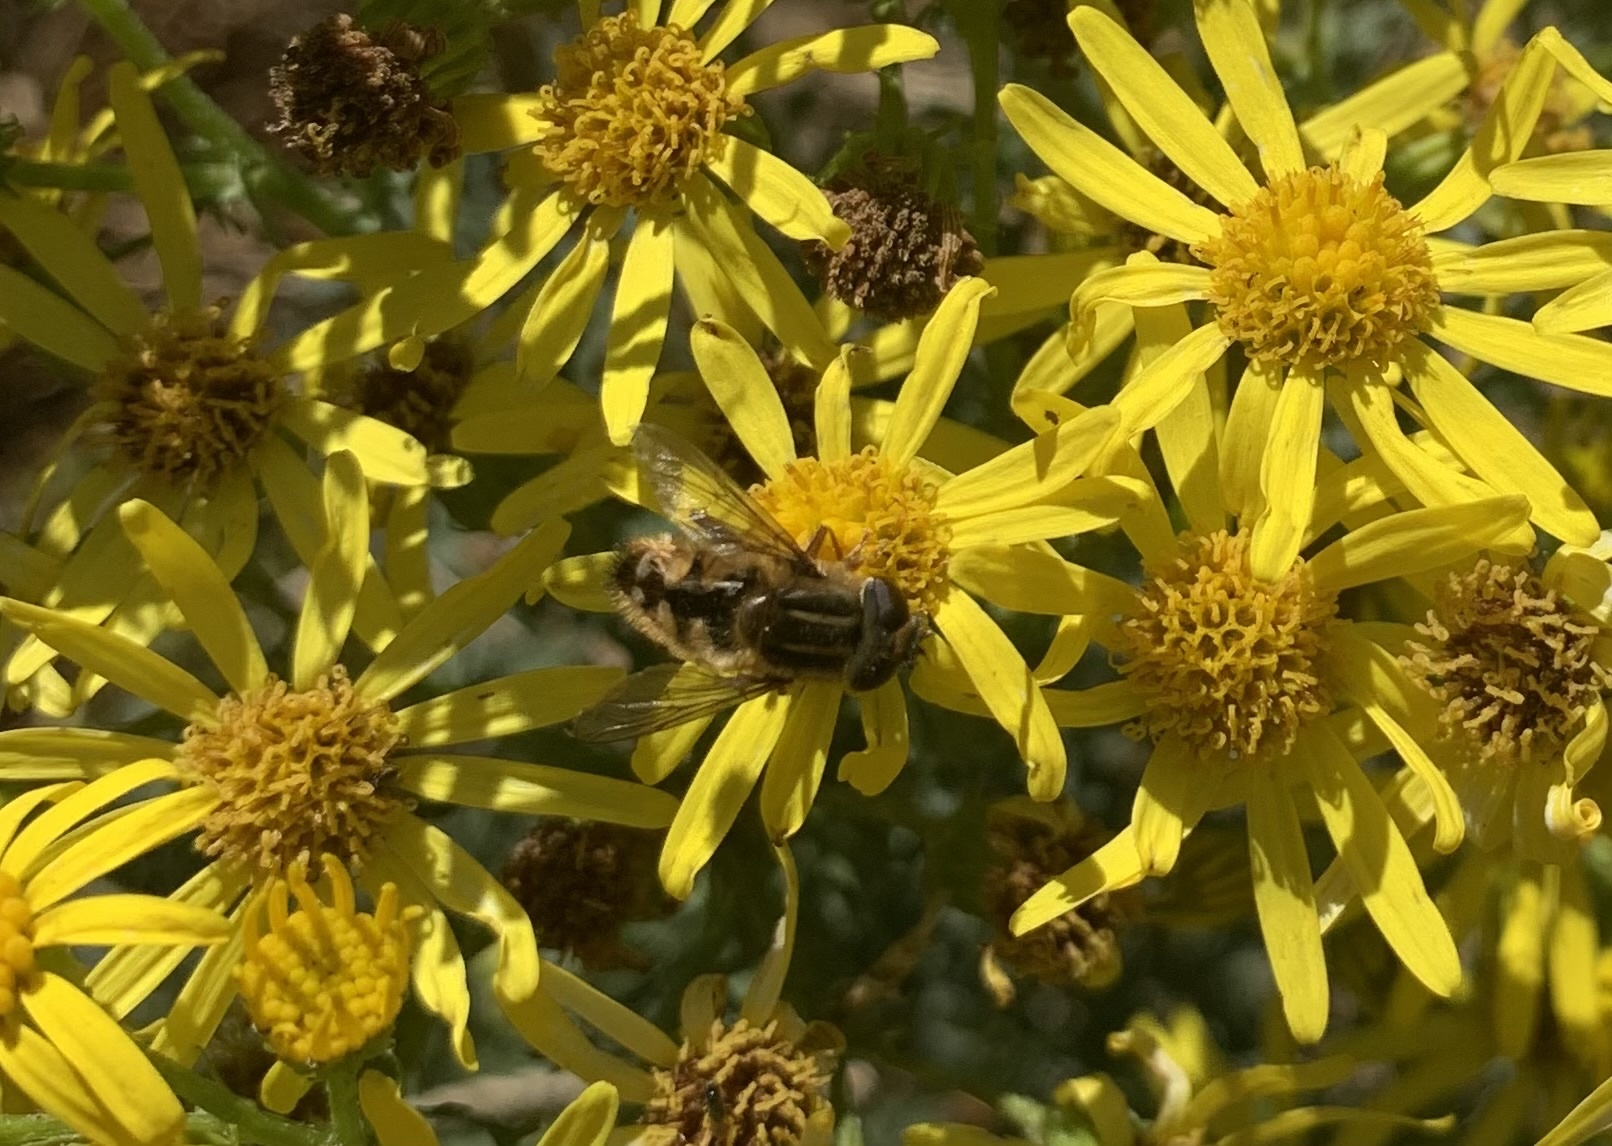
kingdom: Animalia
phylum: Arthropoda
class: Insecta
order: Diptera
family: Syrphidae
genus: Helophilus
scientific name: Helophilus chilensis
